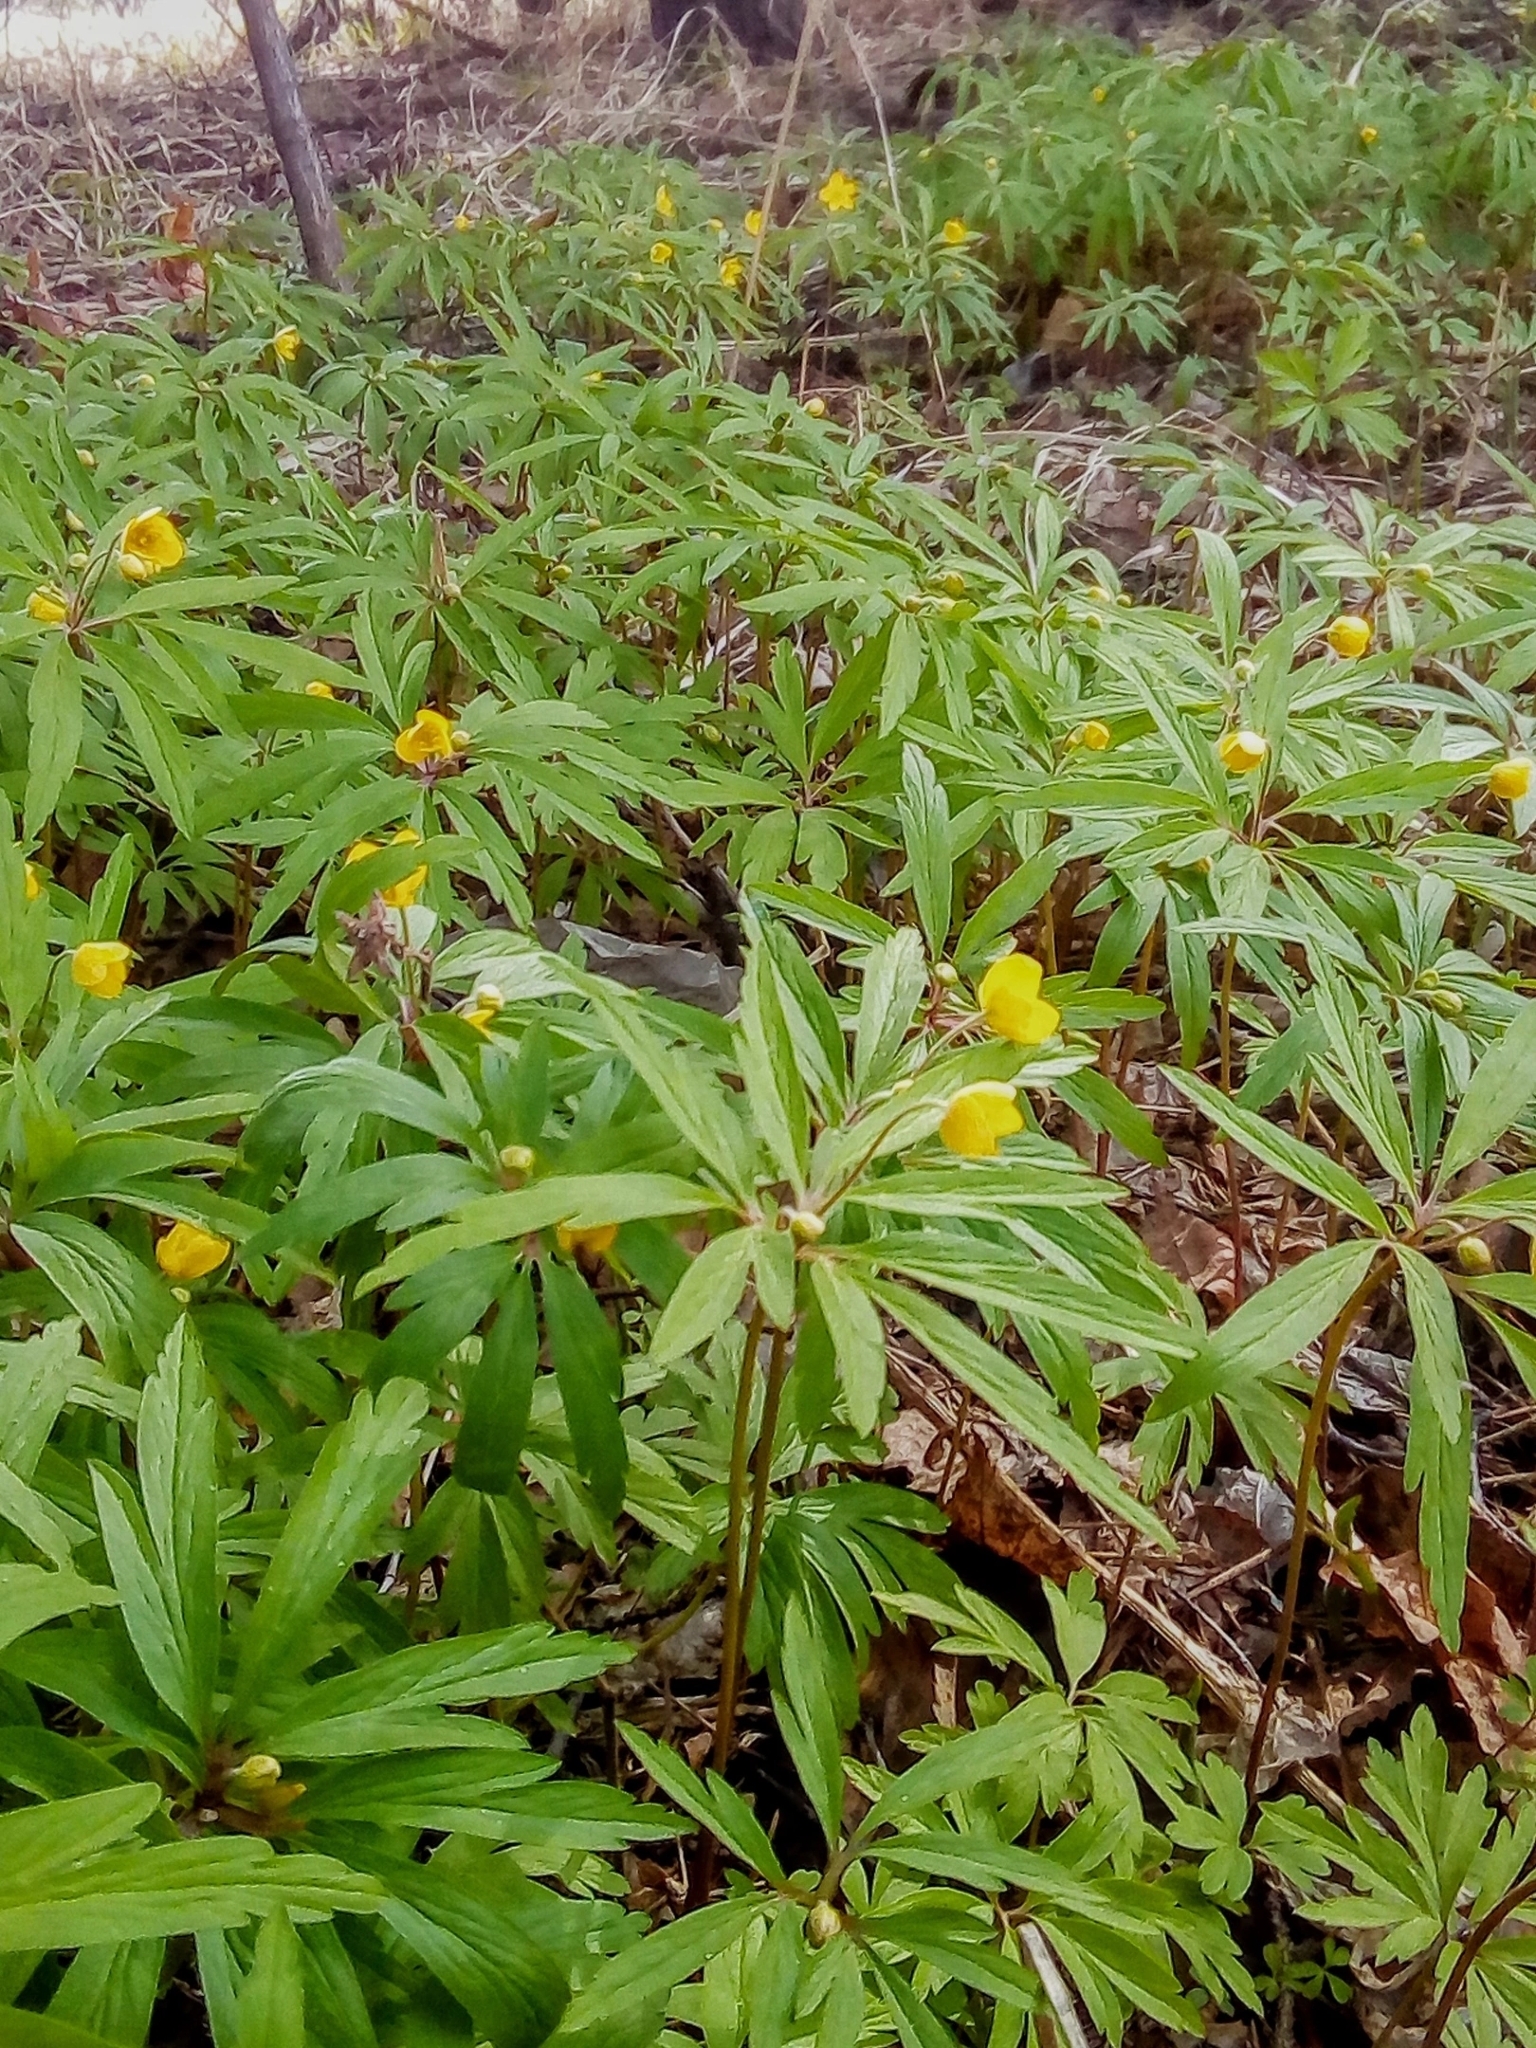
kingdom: Plantae
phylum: Tracheophyta
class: Magnoliopsida
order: Ranunculales
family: Ranunculaceae
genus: Anemone
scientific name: Anemone jenisseensis
